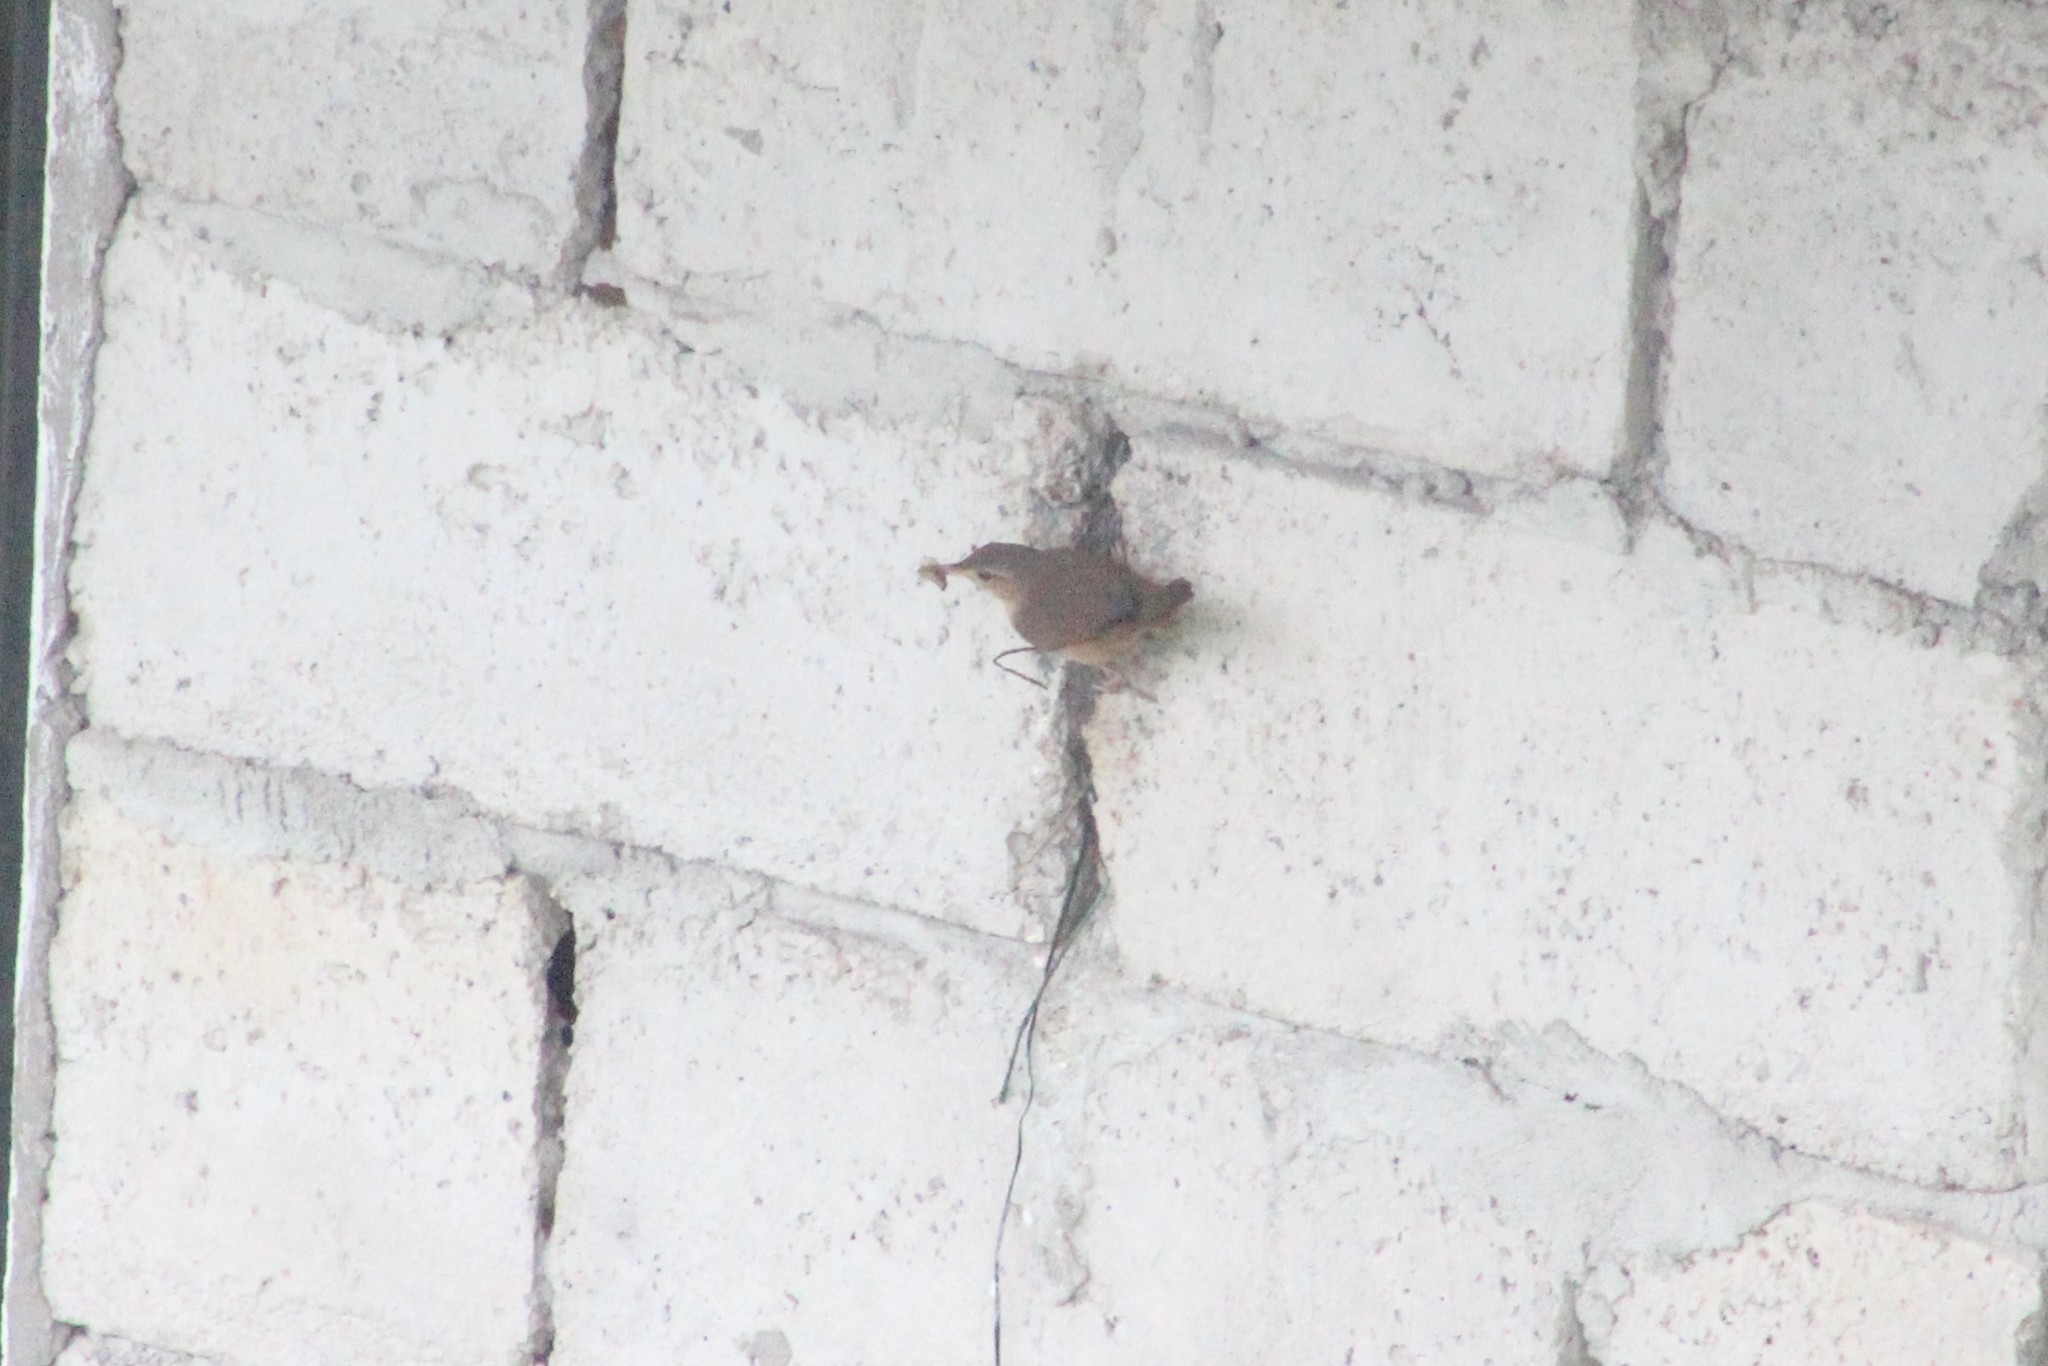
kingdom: Animalia
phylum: Chordata
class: Aves
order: Passeriformes
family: Troglodytidae
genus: Troglodytes
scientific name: Troglodytes aedon
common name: House wren
